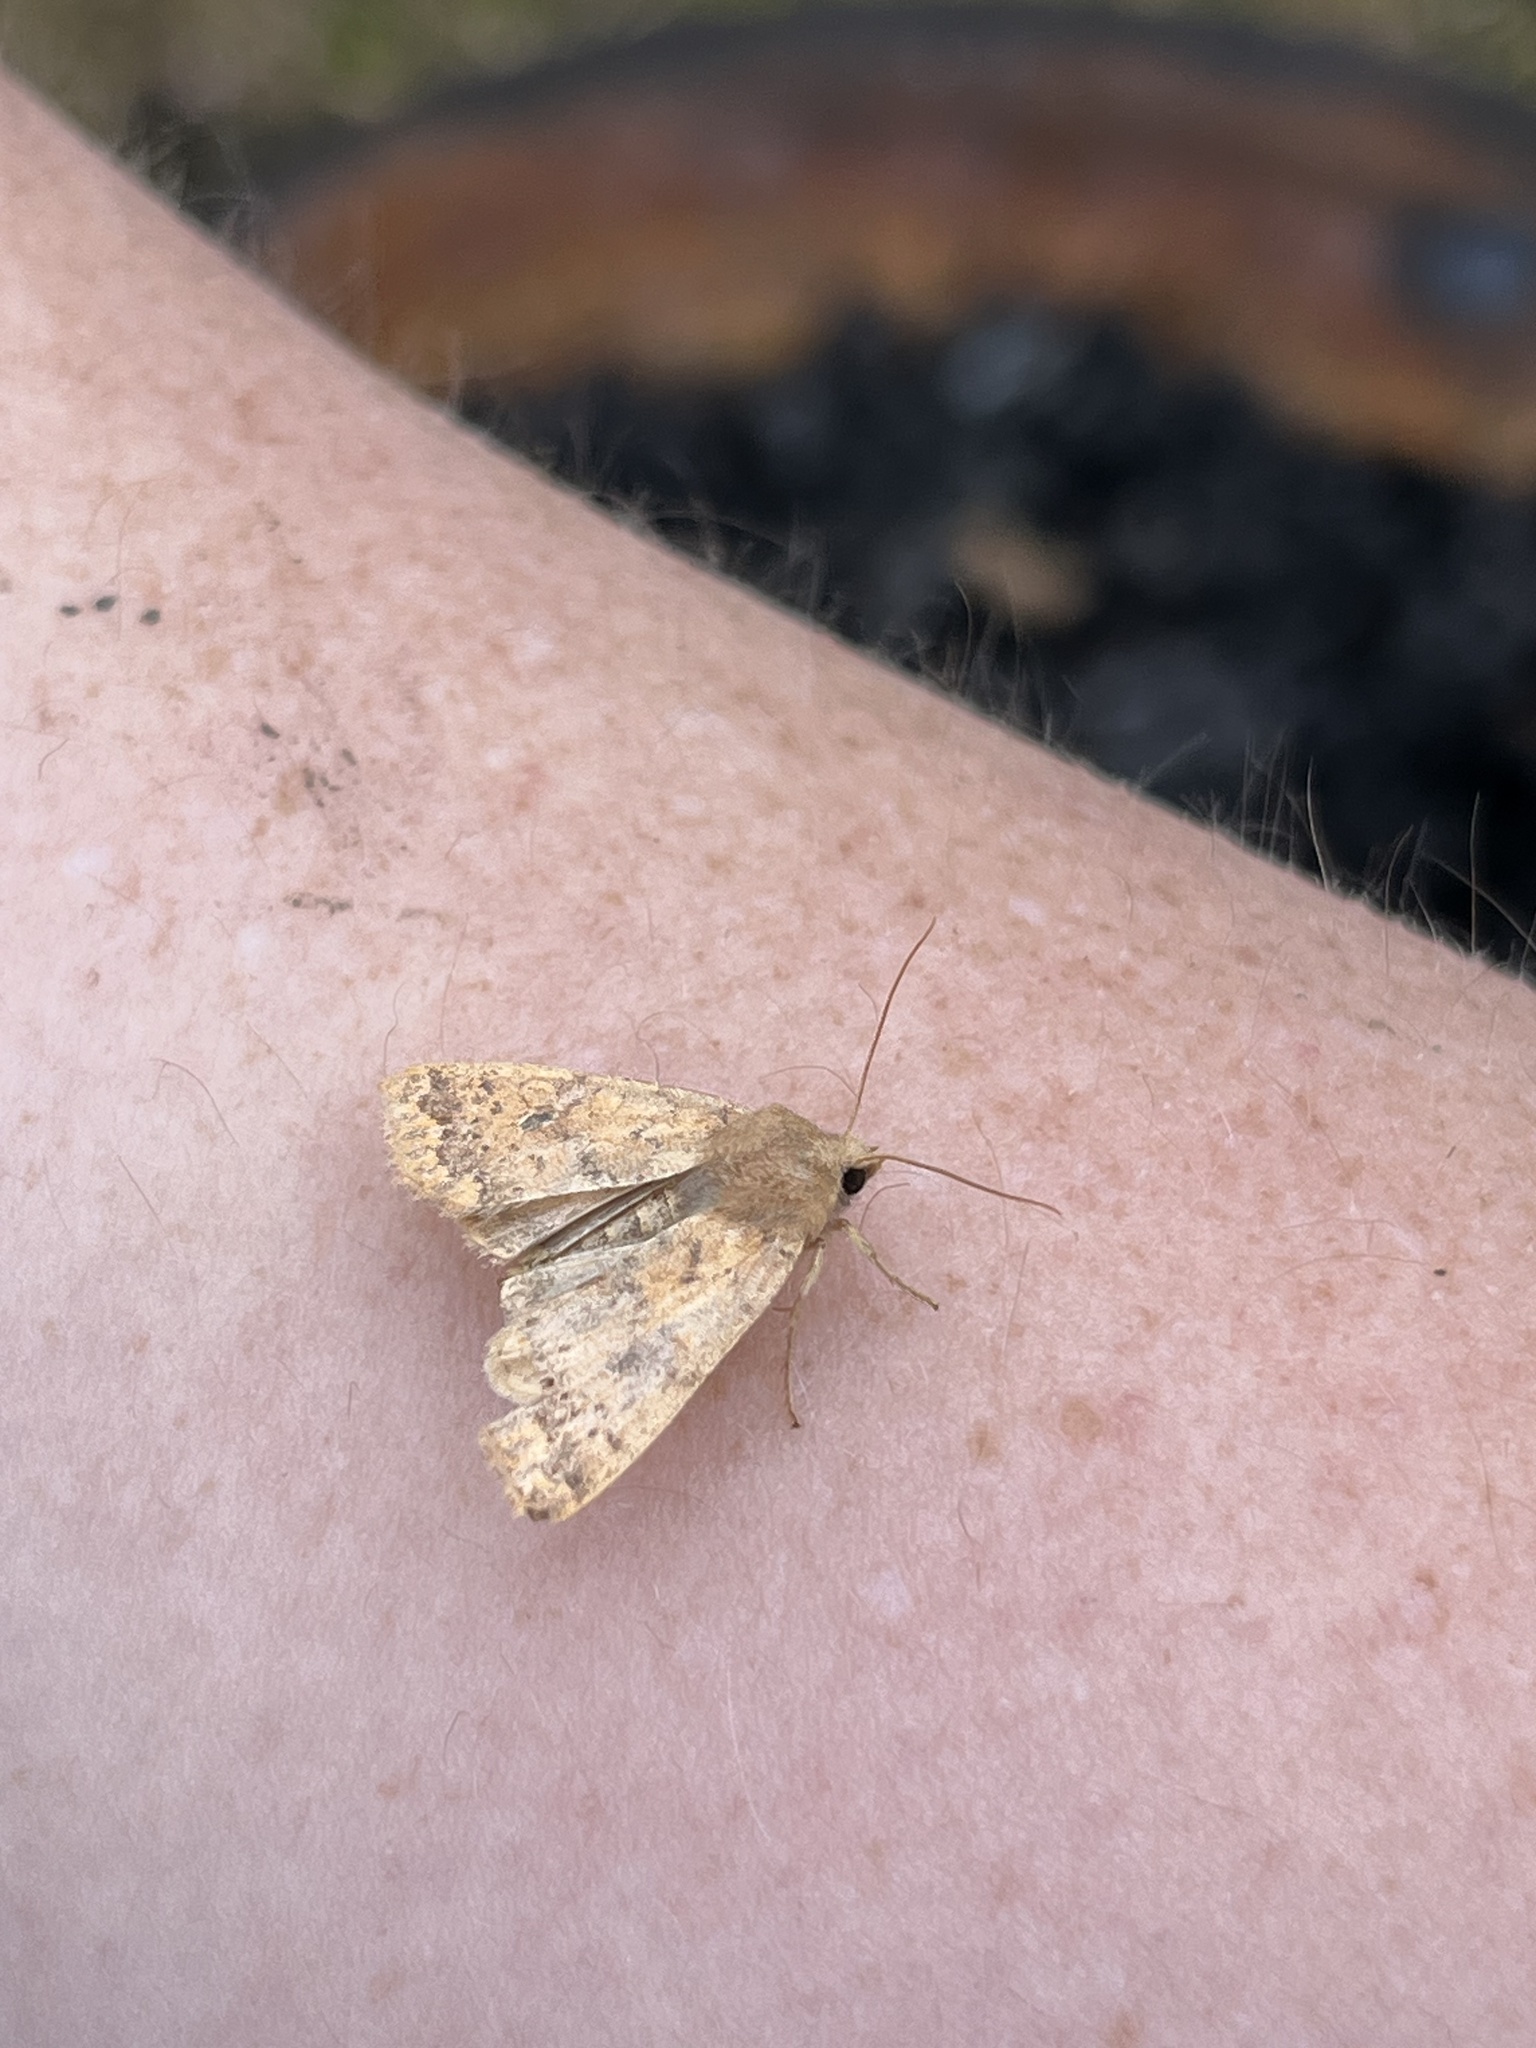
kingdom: Animalia
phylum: Arthropoda
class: Insecta
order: Lepidoptera
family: Noctuidae
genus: Agrochola
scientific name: Agrochola bicolorago
